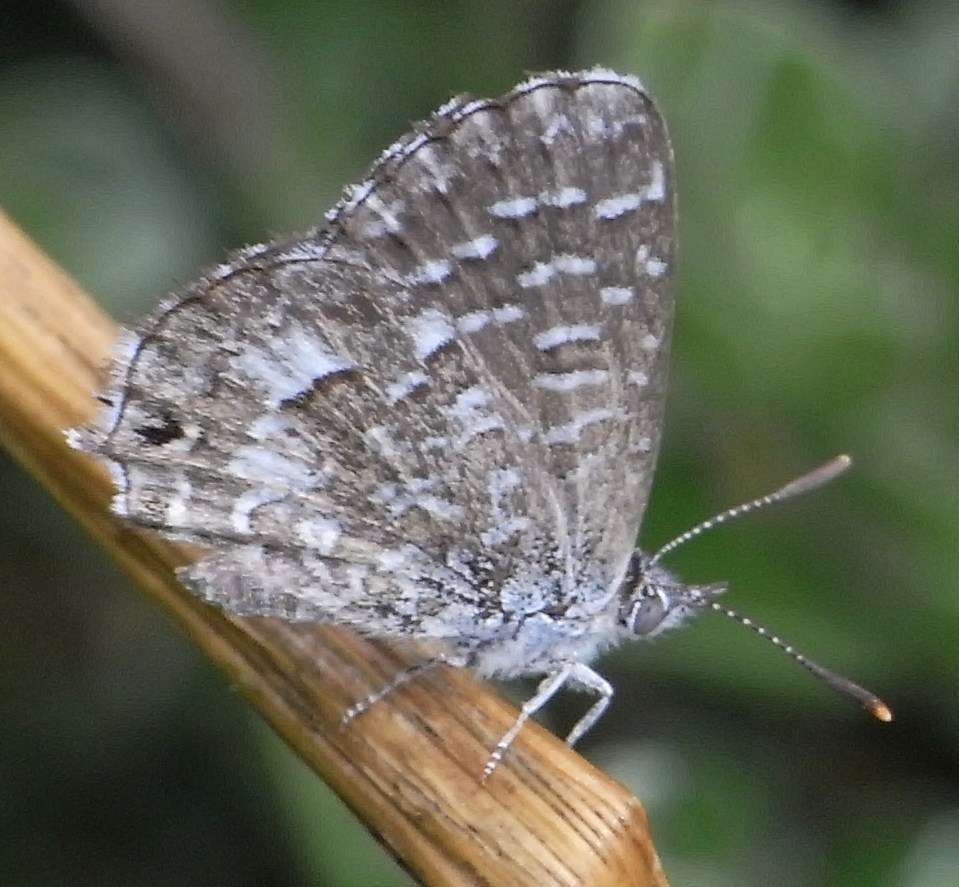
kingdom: Animalia
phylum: Arthropoda
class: Insecta
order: Lepidoptera
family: Lycaenidae
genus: Theclinesthes
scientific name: Theclinesthes serpentata
